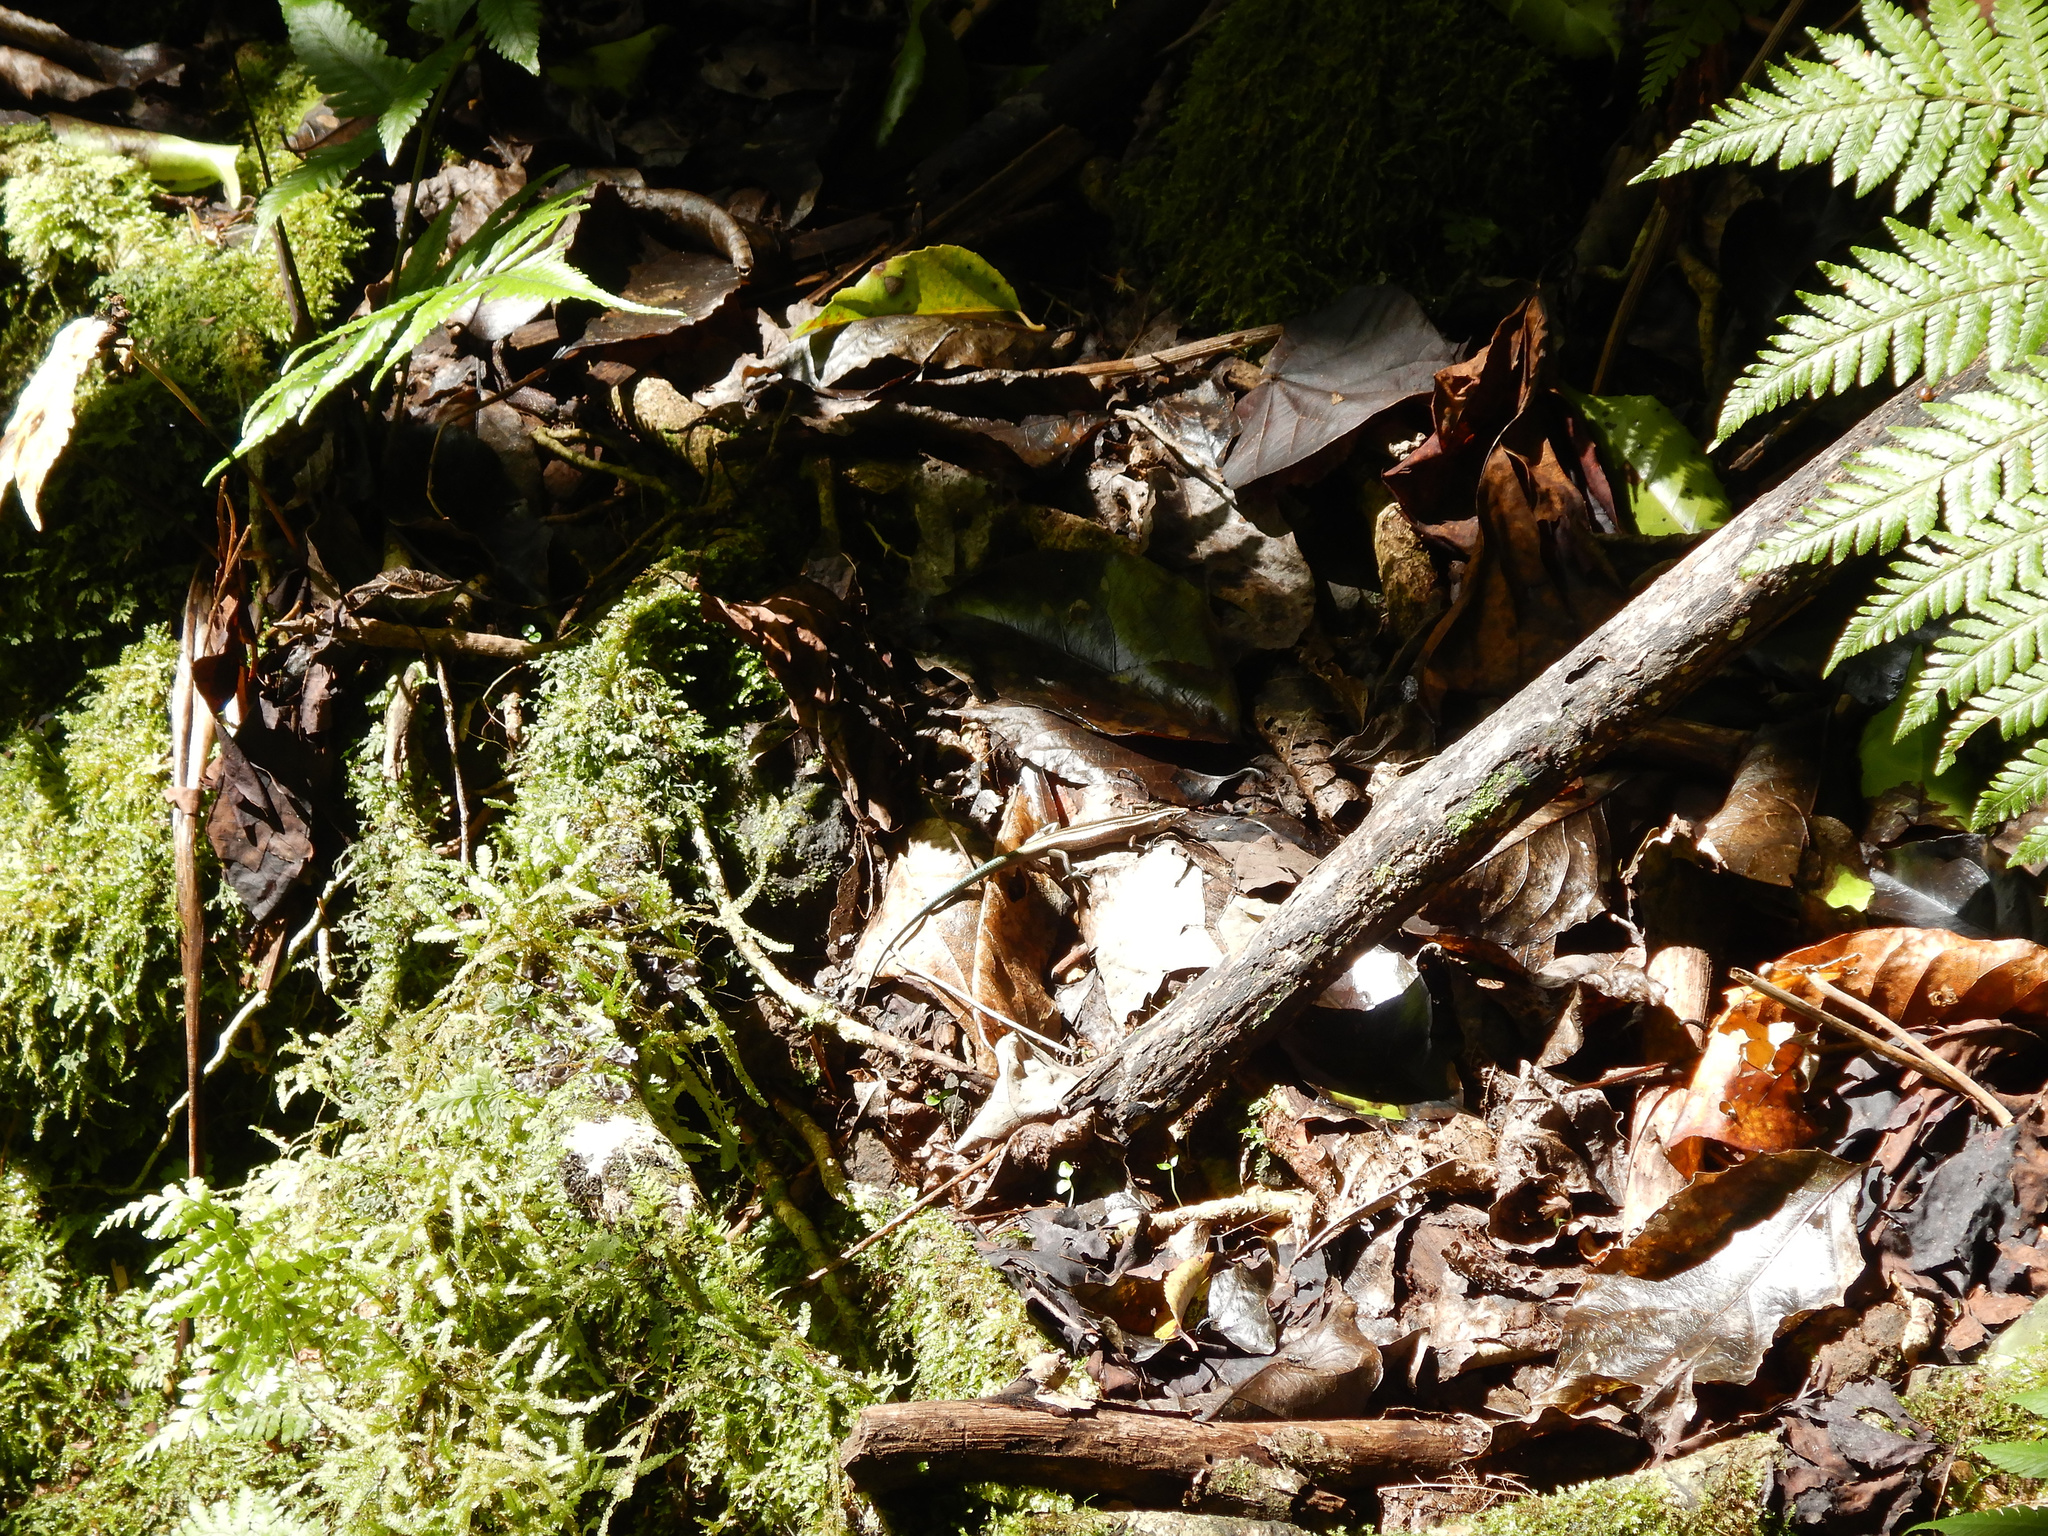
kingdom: Animalia
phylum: Chordata
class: Squamata
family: Scincidae
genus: Emoia
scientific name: Emoia impar
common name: Azure-tailed skink
